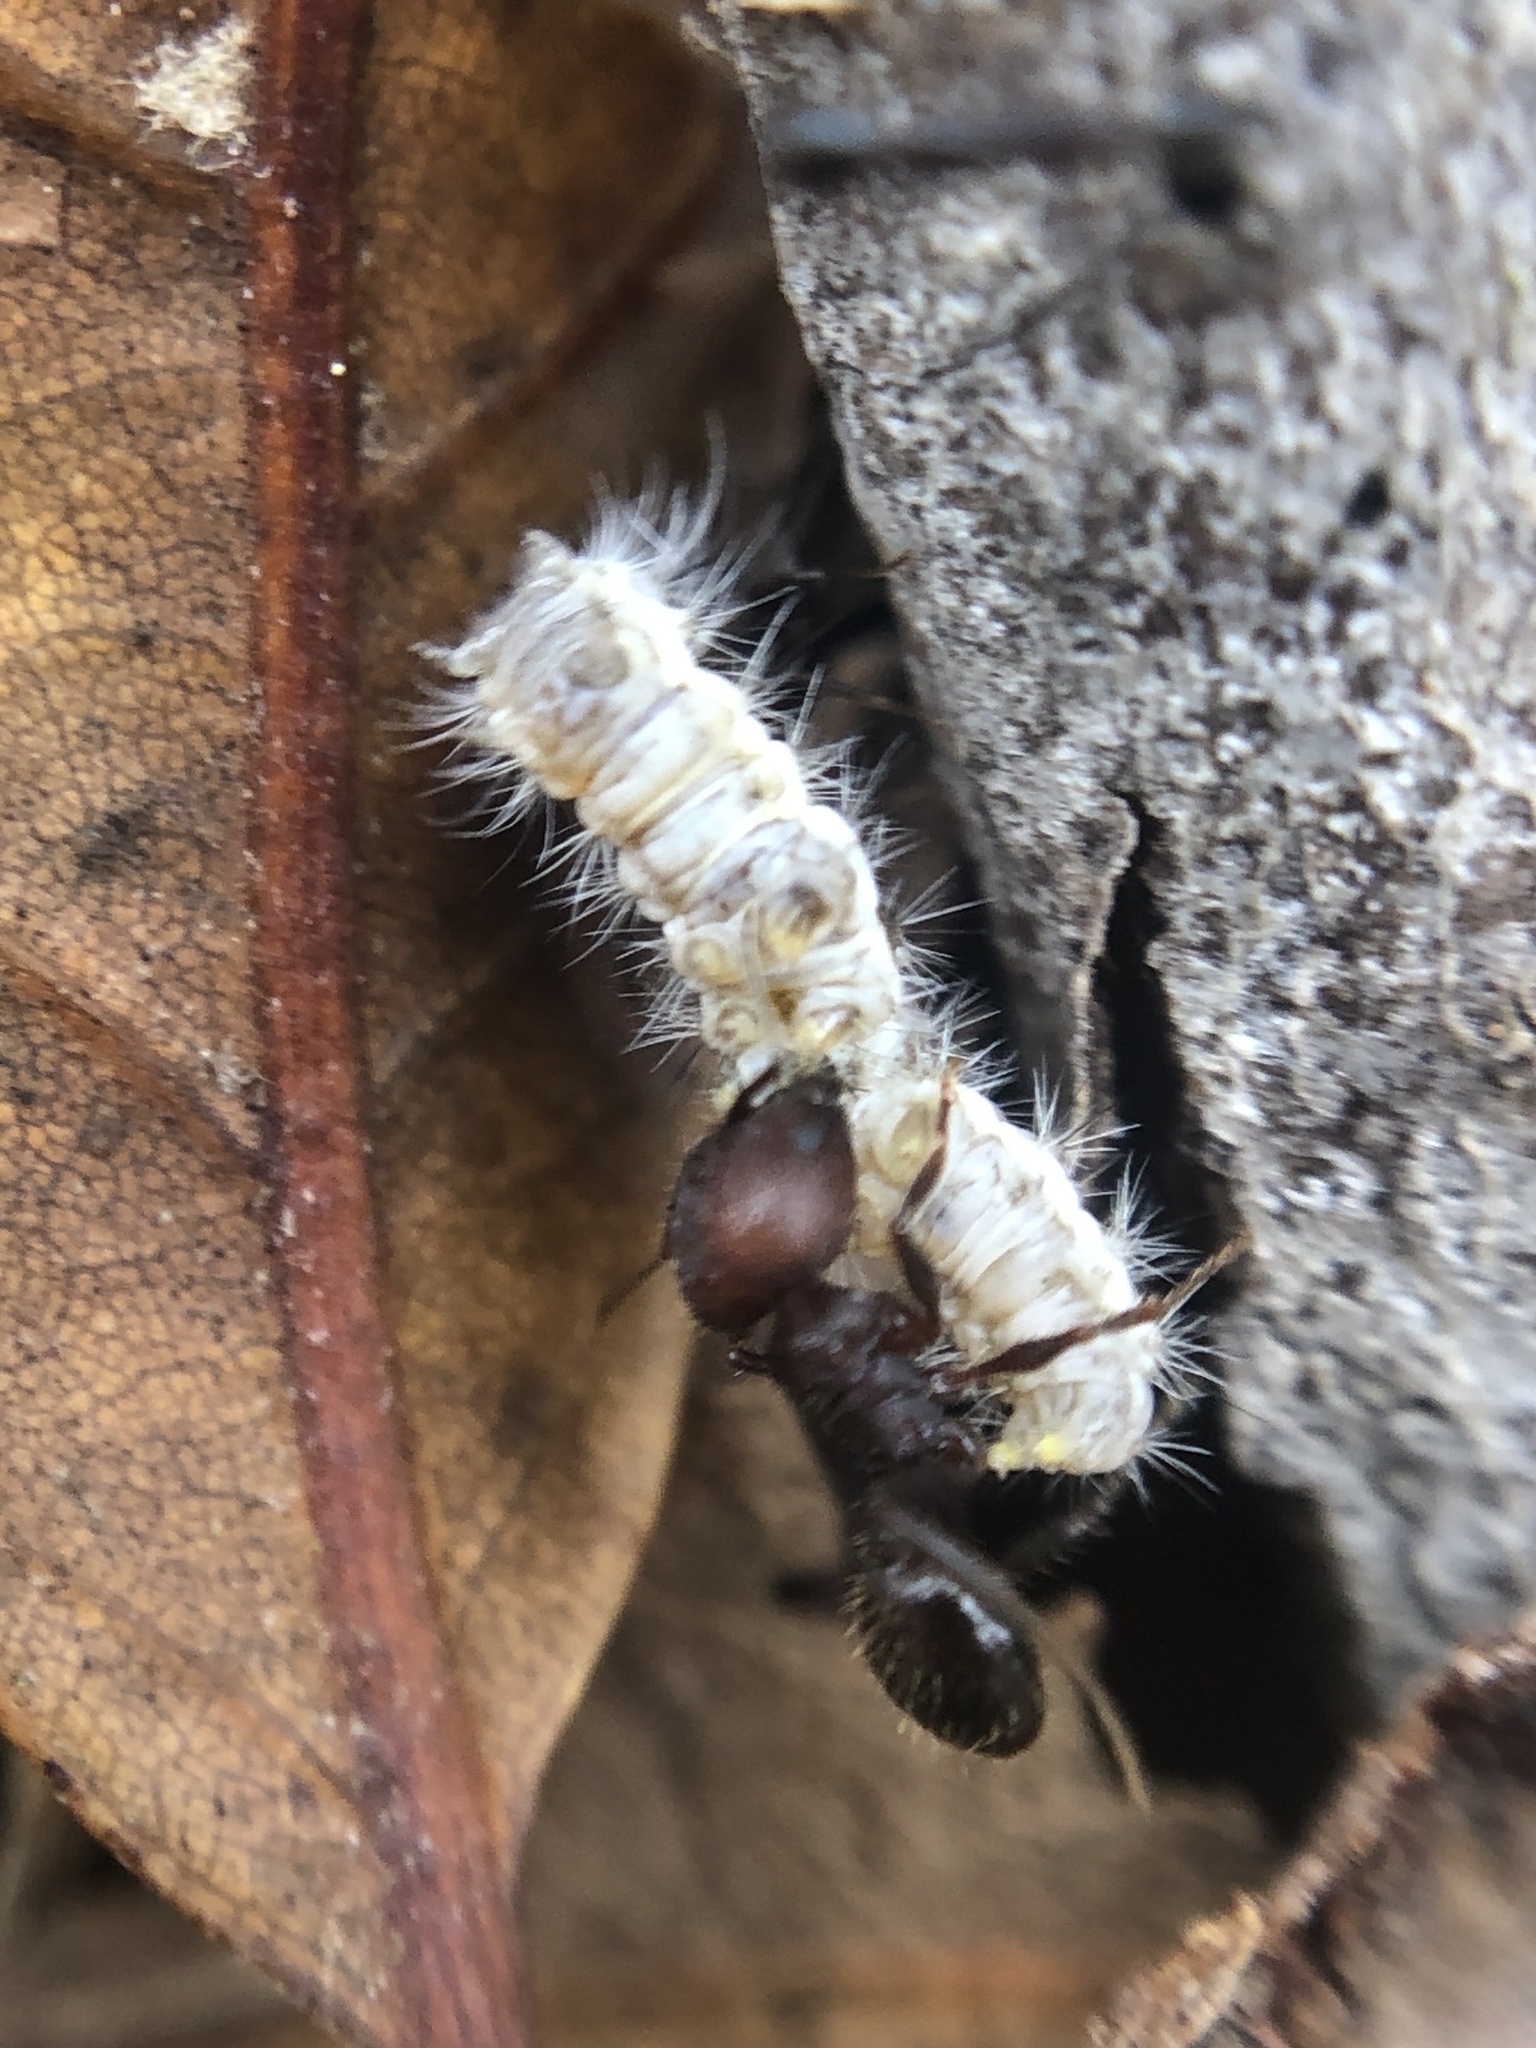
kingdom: Animalia
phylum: Arthropoda
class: Insecta
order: Hymenoptera
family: Formicidae
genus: Pheidole
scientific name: Pheidole obscurithorax
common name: Obscure big-headed ant
